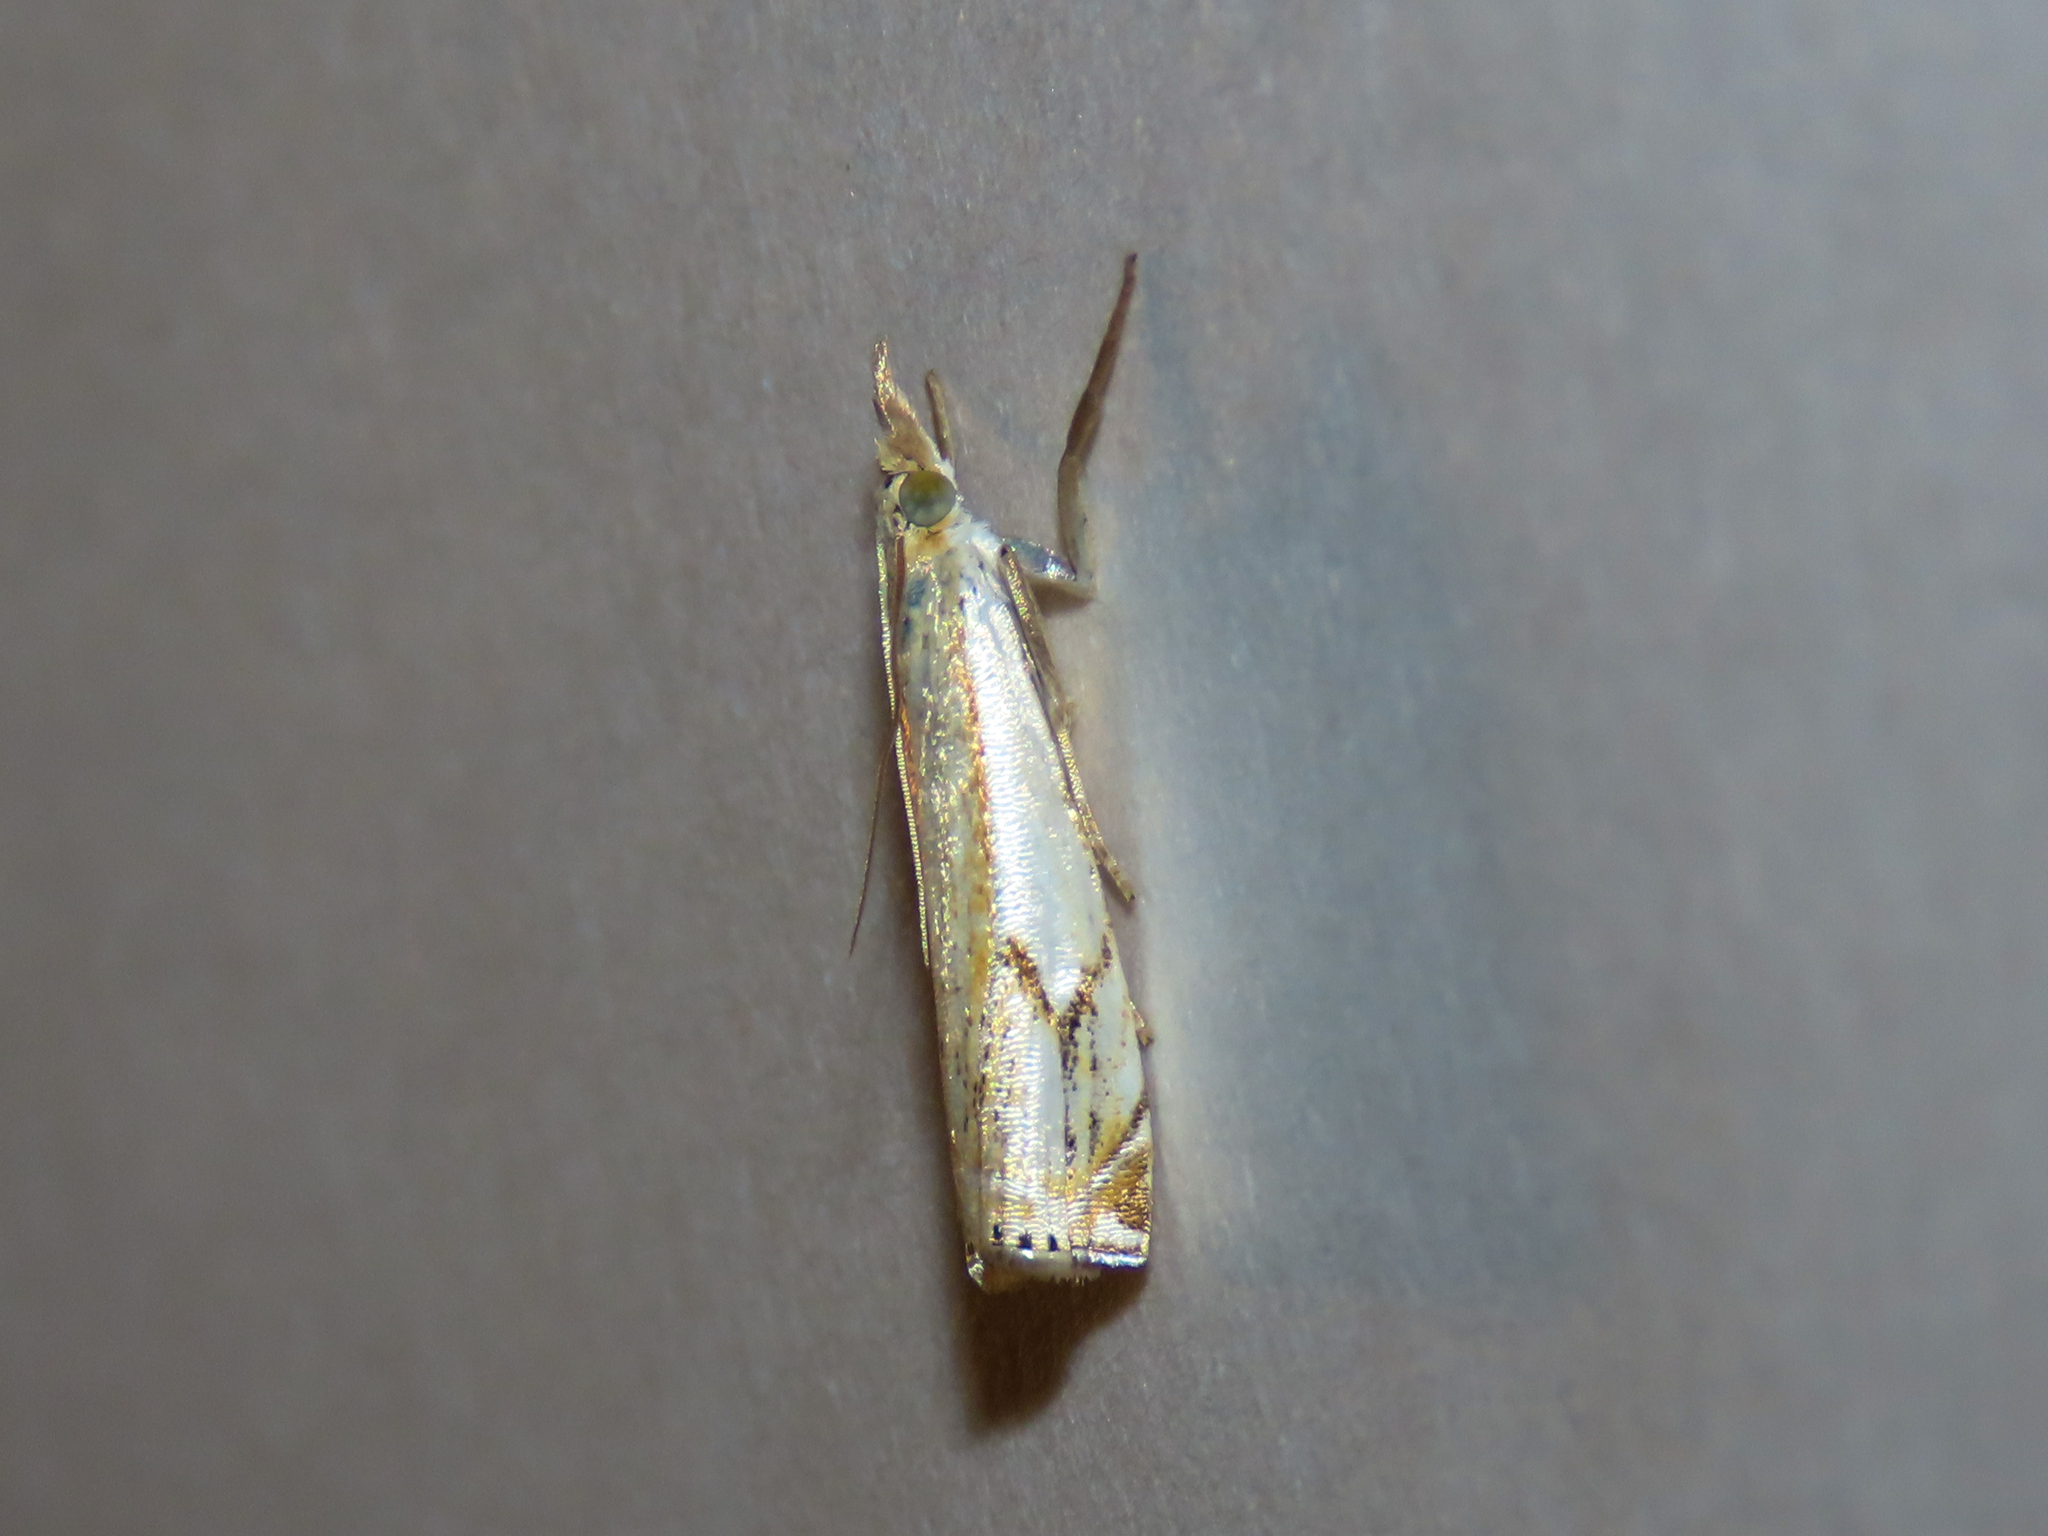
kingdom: Animalia
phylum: Arthropoda
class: Insecta
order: Lepidoptera
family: Crambidae
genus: Crambus
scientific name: Crambus agitatellus
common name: Double-banded grass-veneer
